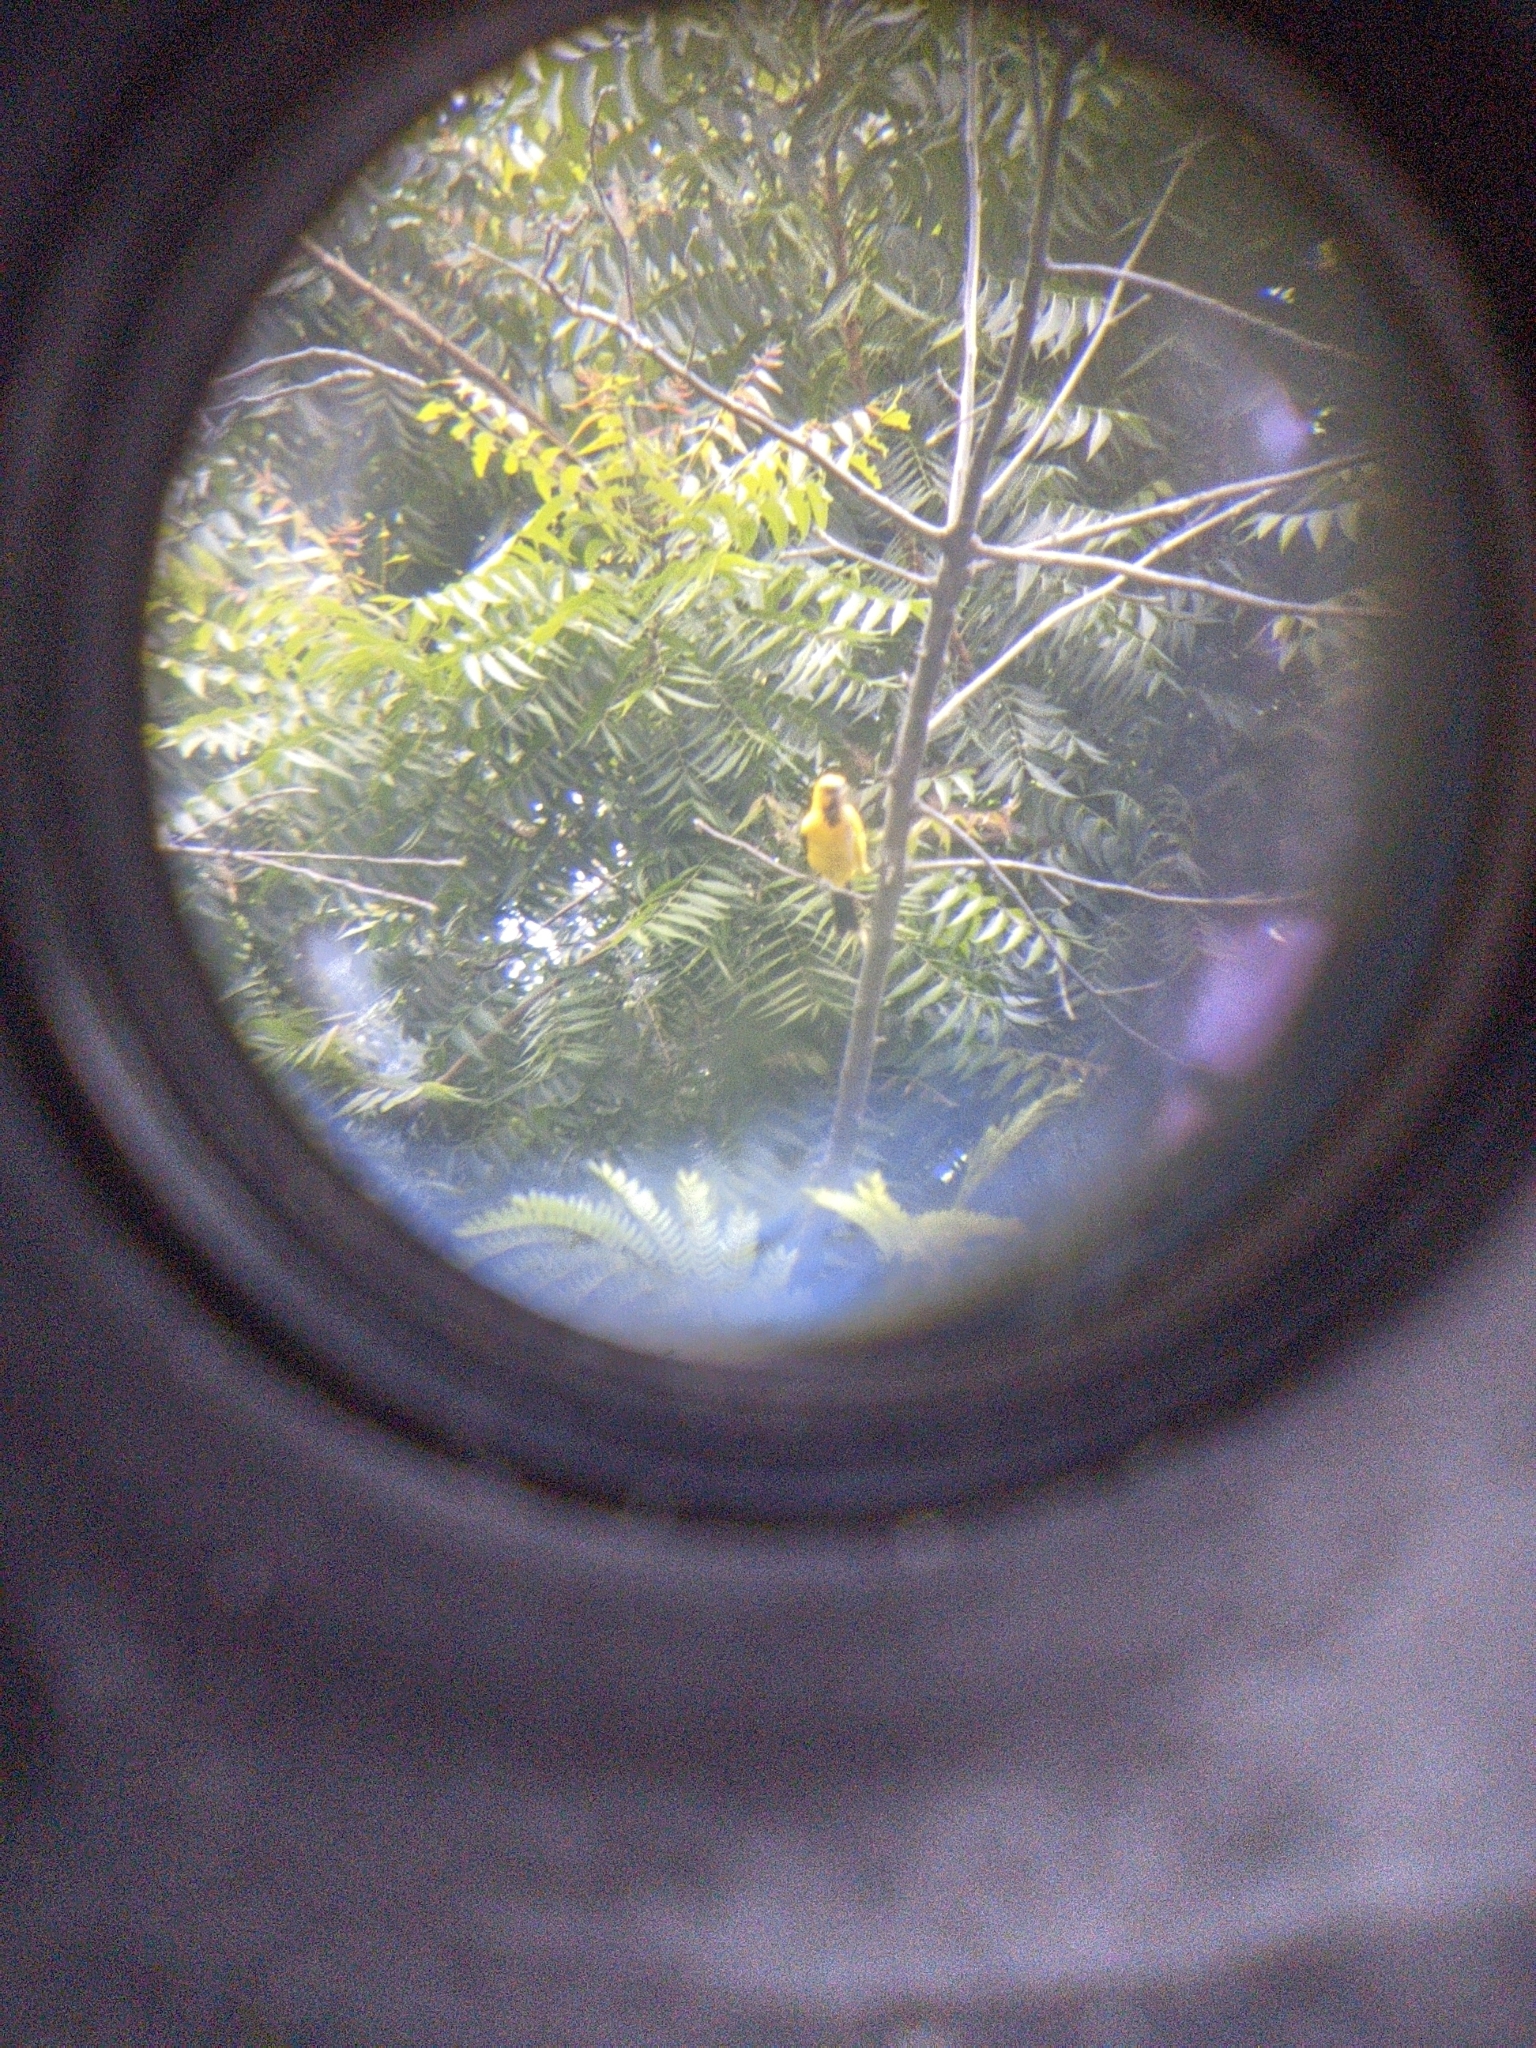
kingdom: Animalia
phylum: Chordata
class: Aves
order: Passeriformes
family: Icteridae
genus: Icterus
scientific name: Icterus nigrogularis
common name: Yellow oriole
